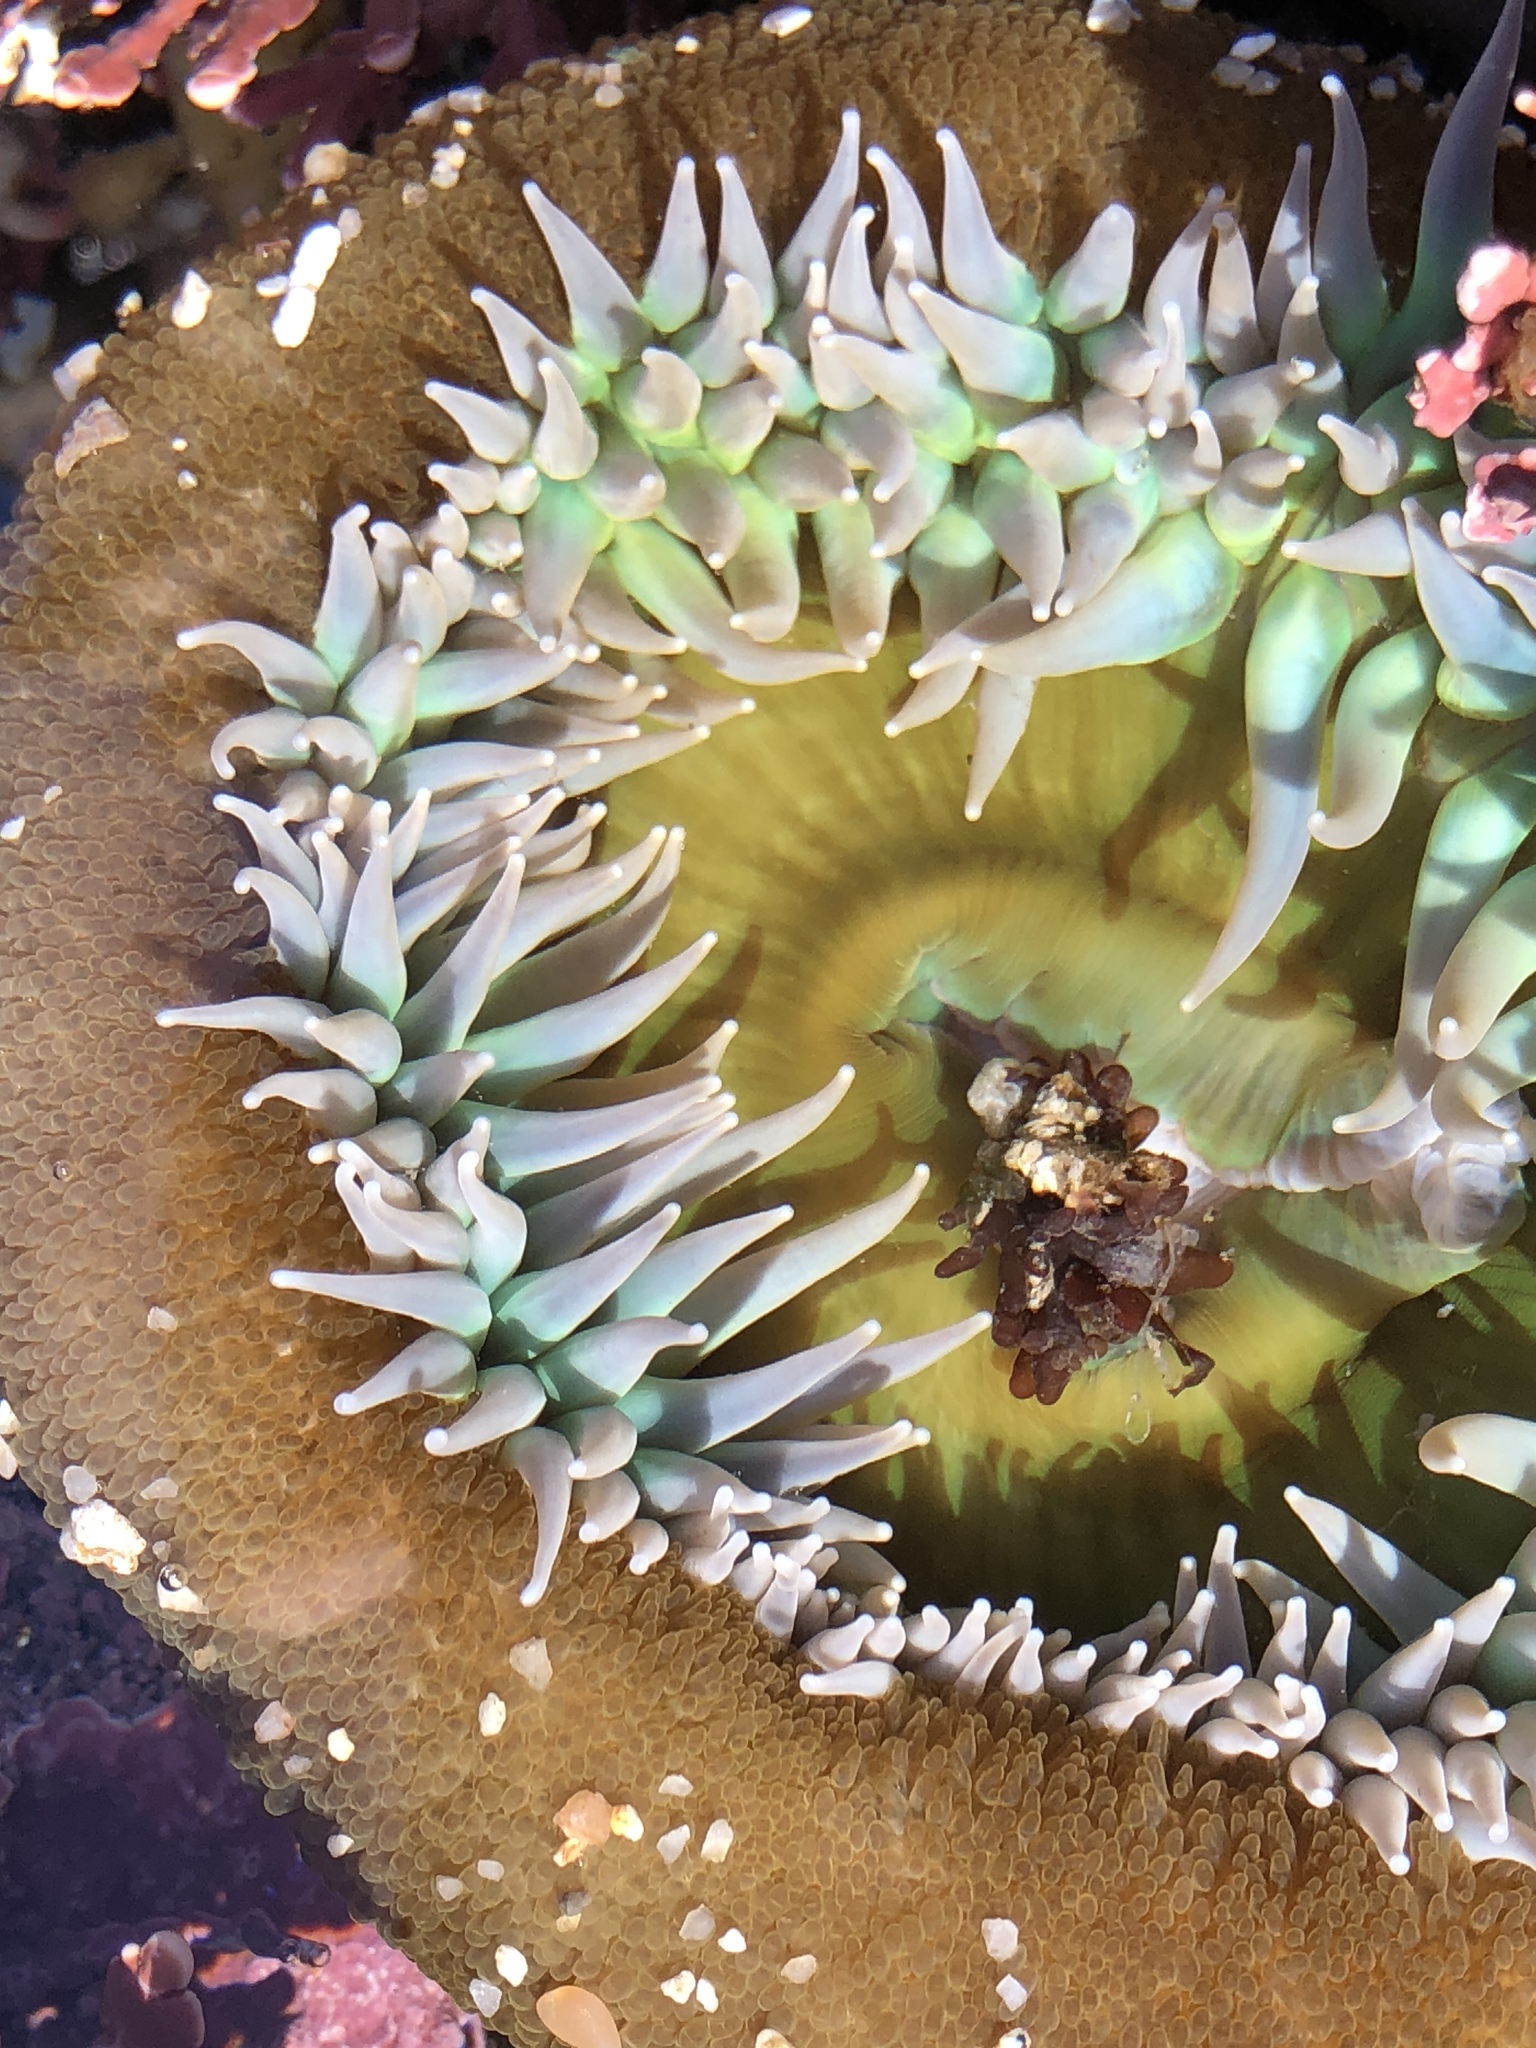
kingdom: Animalia
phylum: Cnidaria
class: Anthozoa
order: Actiniaria
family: Actiniidae
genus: Anthopleura
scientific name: Anthopleura xanthogrammica
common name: Giant green anemone
